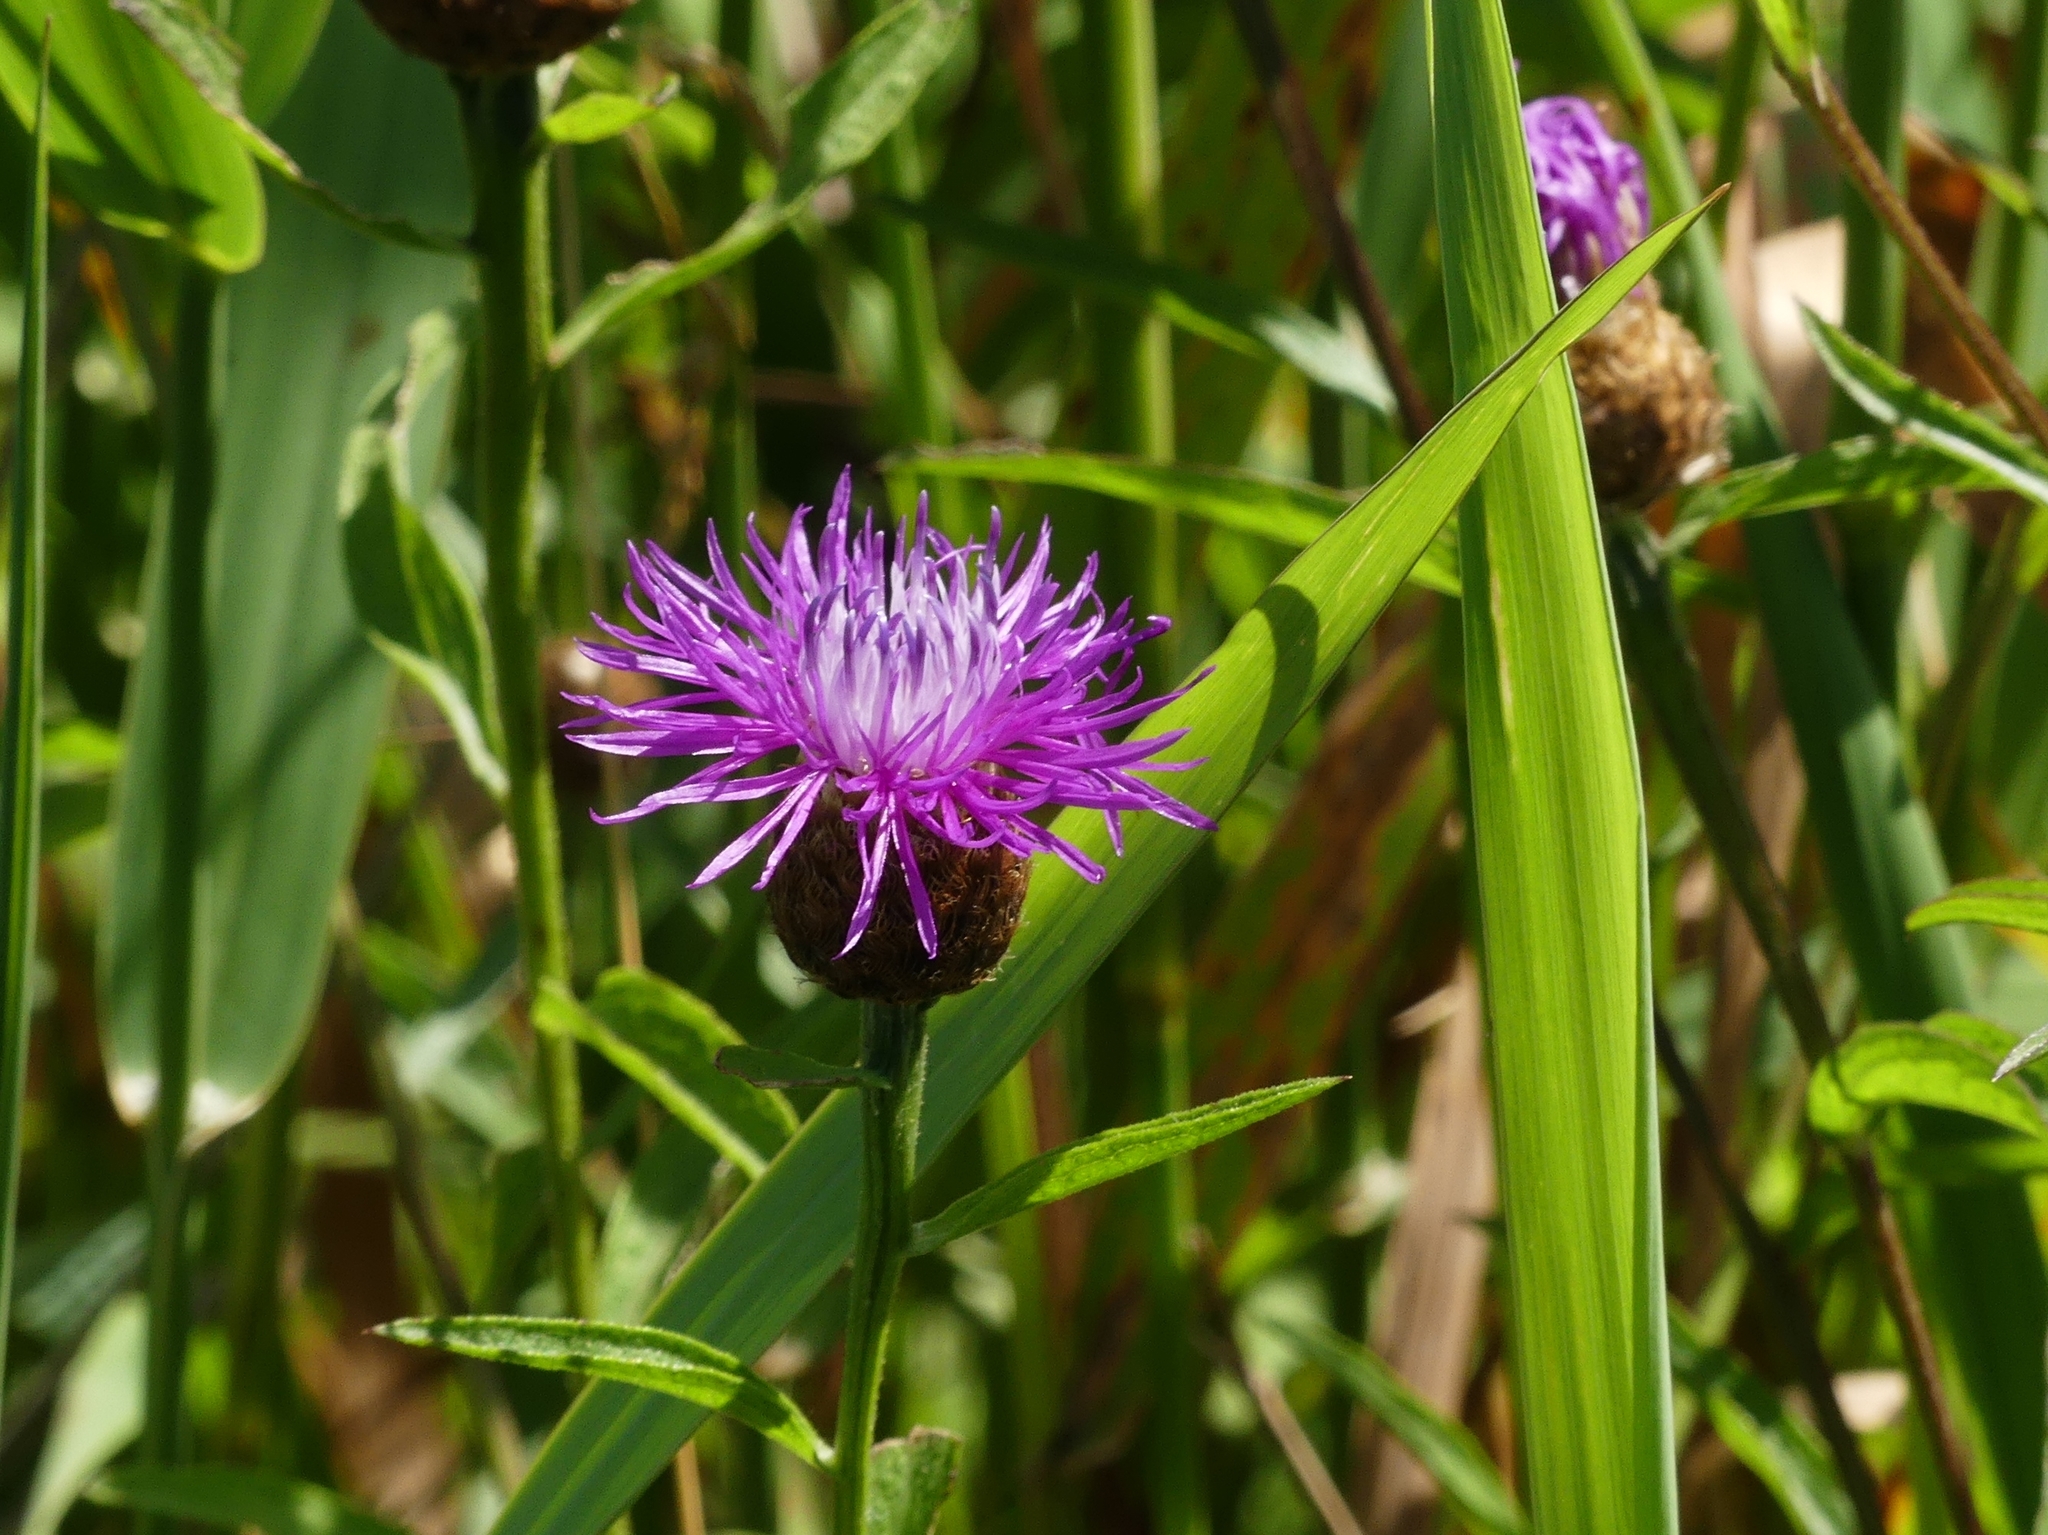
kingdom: Plantae
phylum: Tracheophyta
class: Magnoliopsida
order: Asterales
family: Asteraceae
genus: Centaurea
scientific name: Centaurea moncktonii
